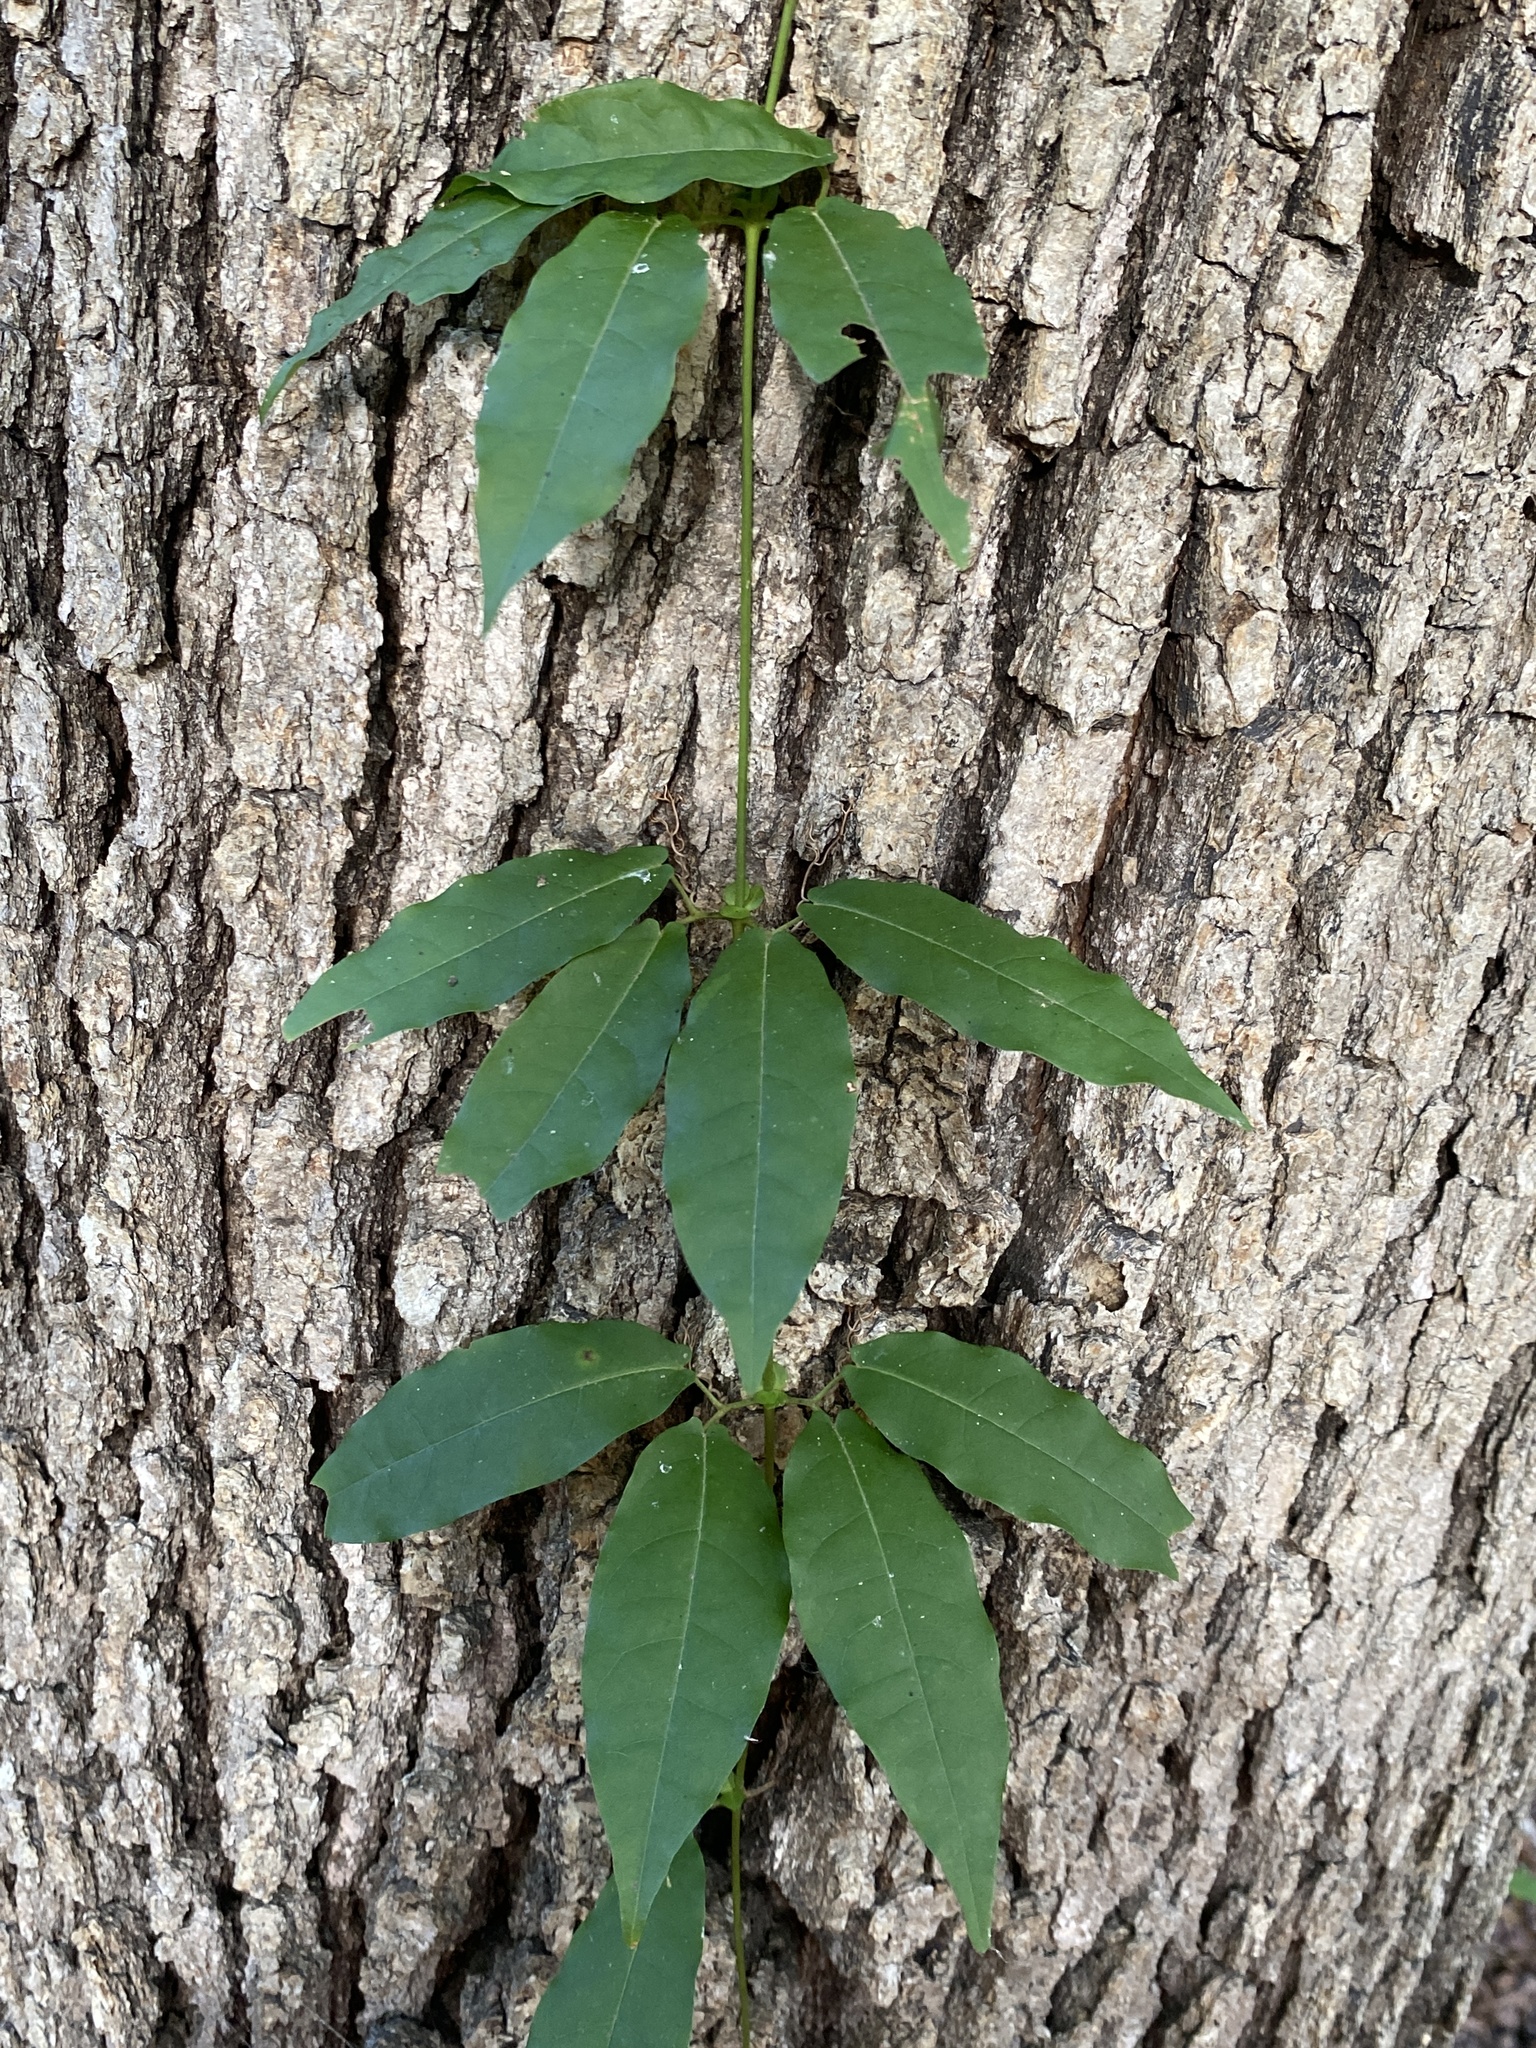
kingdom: Plantae
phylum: Tracheophyta
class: Magnoliopsida
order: Lamiales
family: Bignoniaceae
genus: Bignonia
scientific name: Bignonia capreolata
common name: Crossvine
